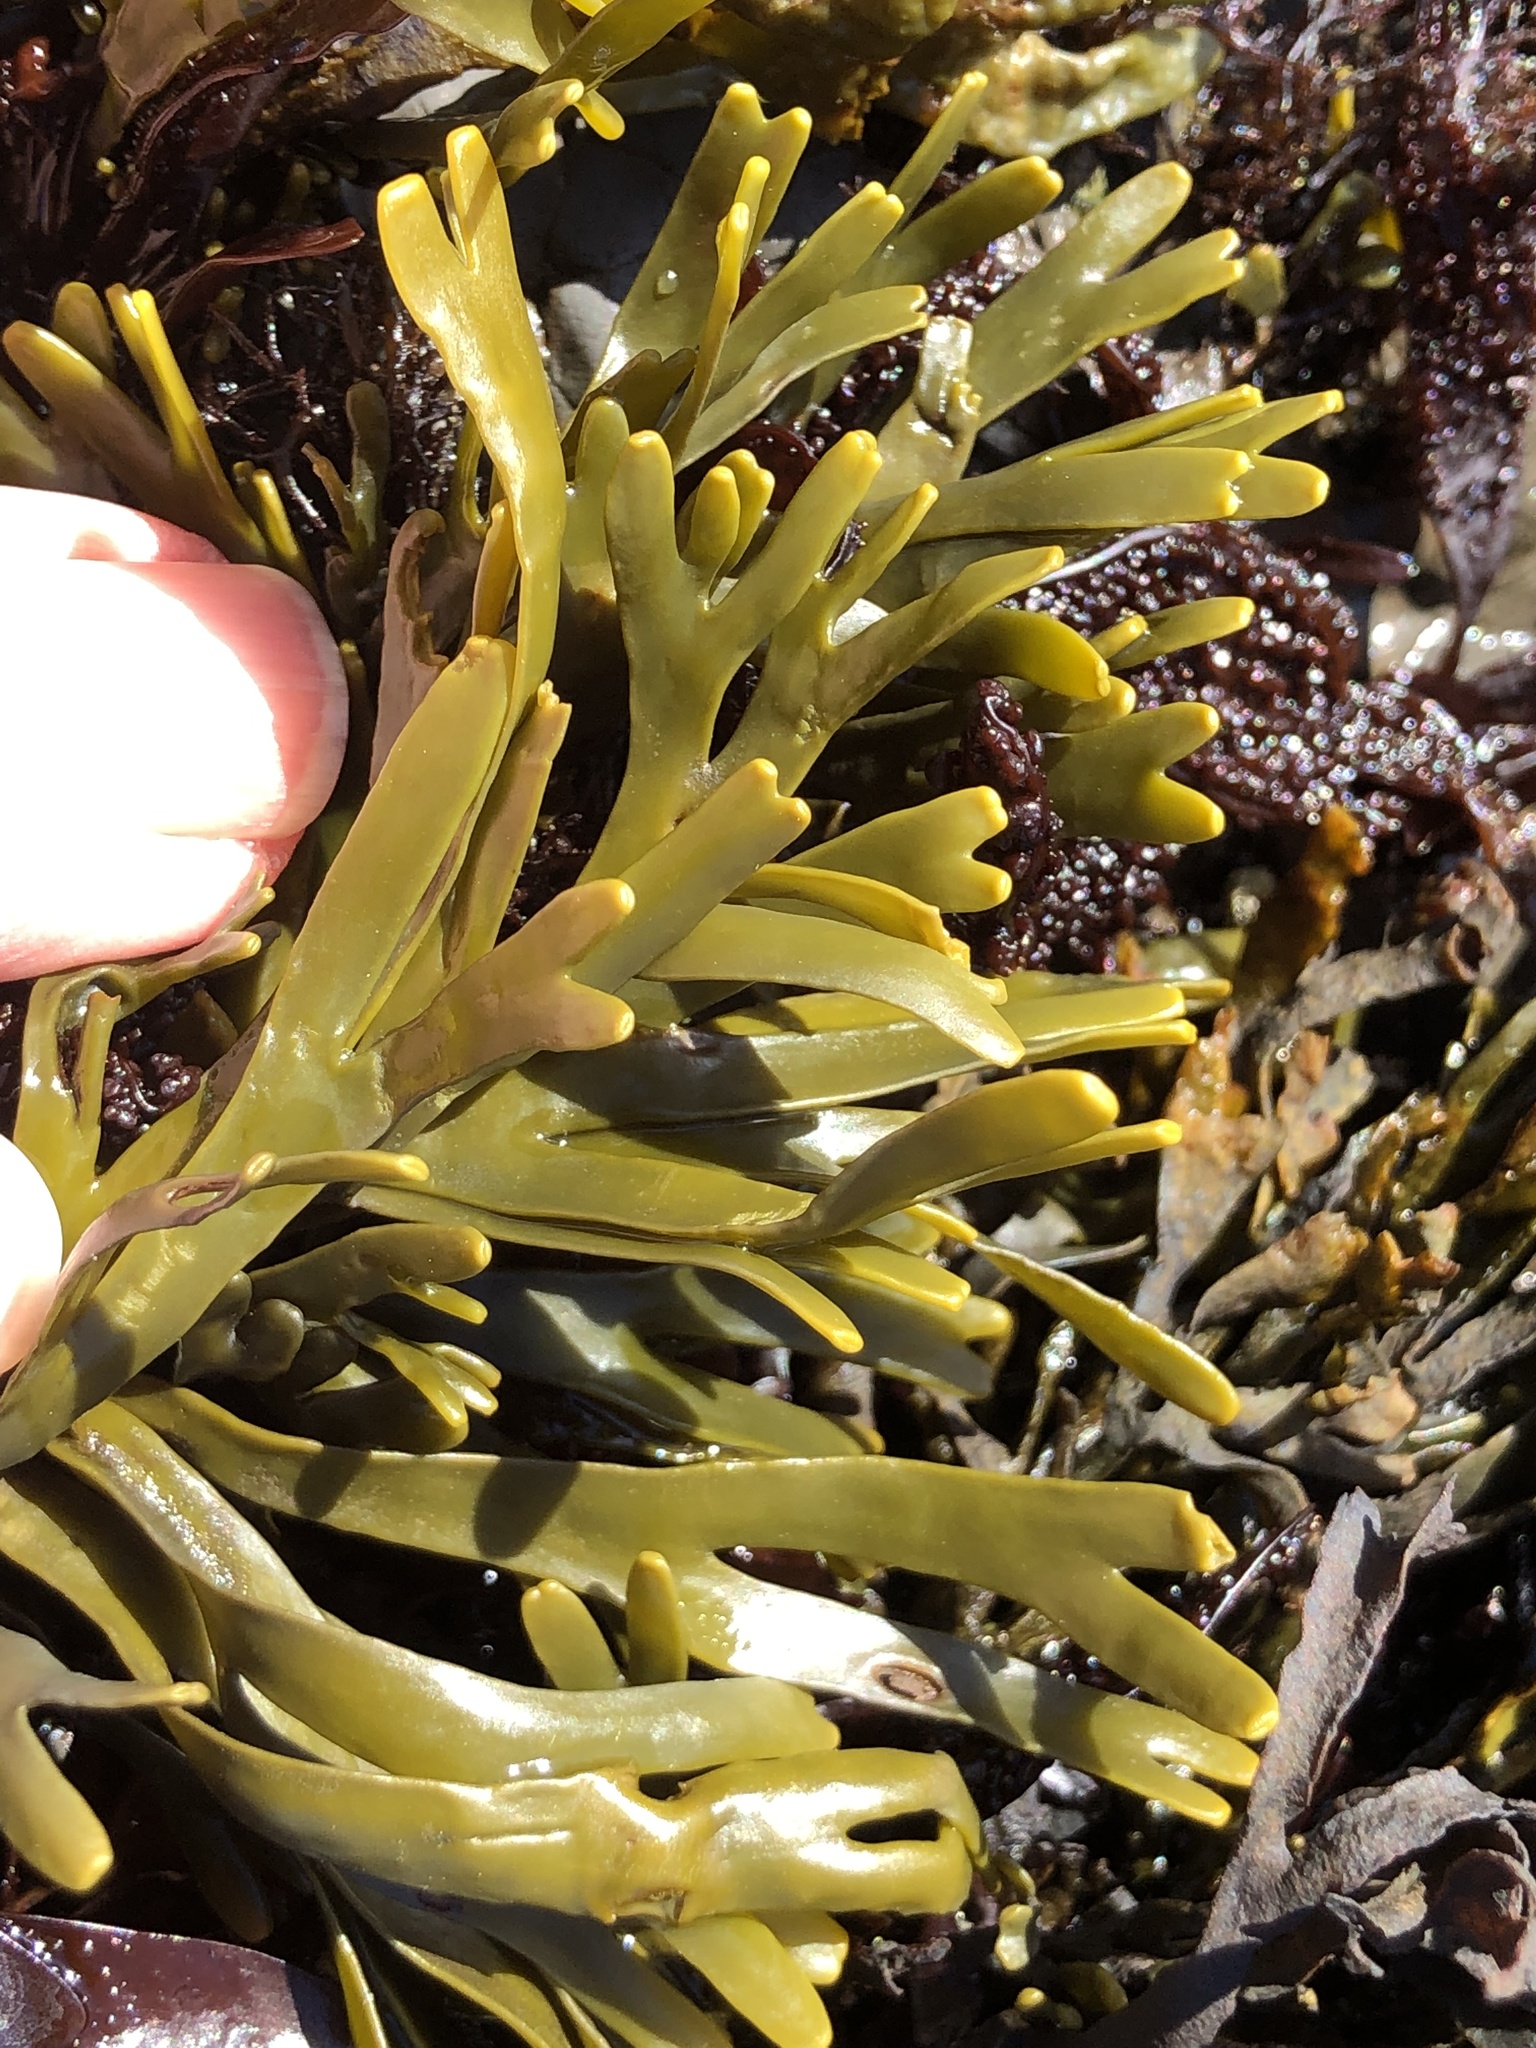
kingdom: Chromista
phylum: Ochrophyta
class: Phaeophyceae
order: Fucales
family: Fucaceae
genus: Pelvetiopsis
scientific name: Pelvetiopsis limitata
